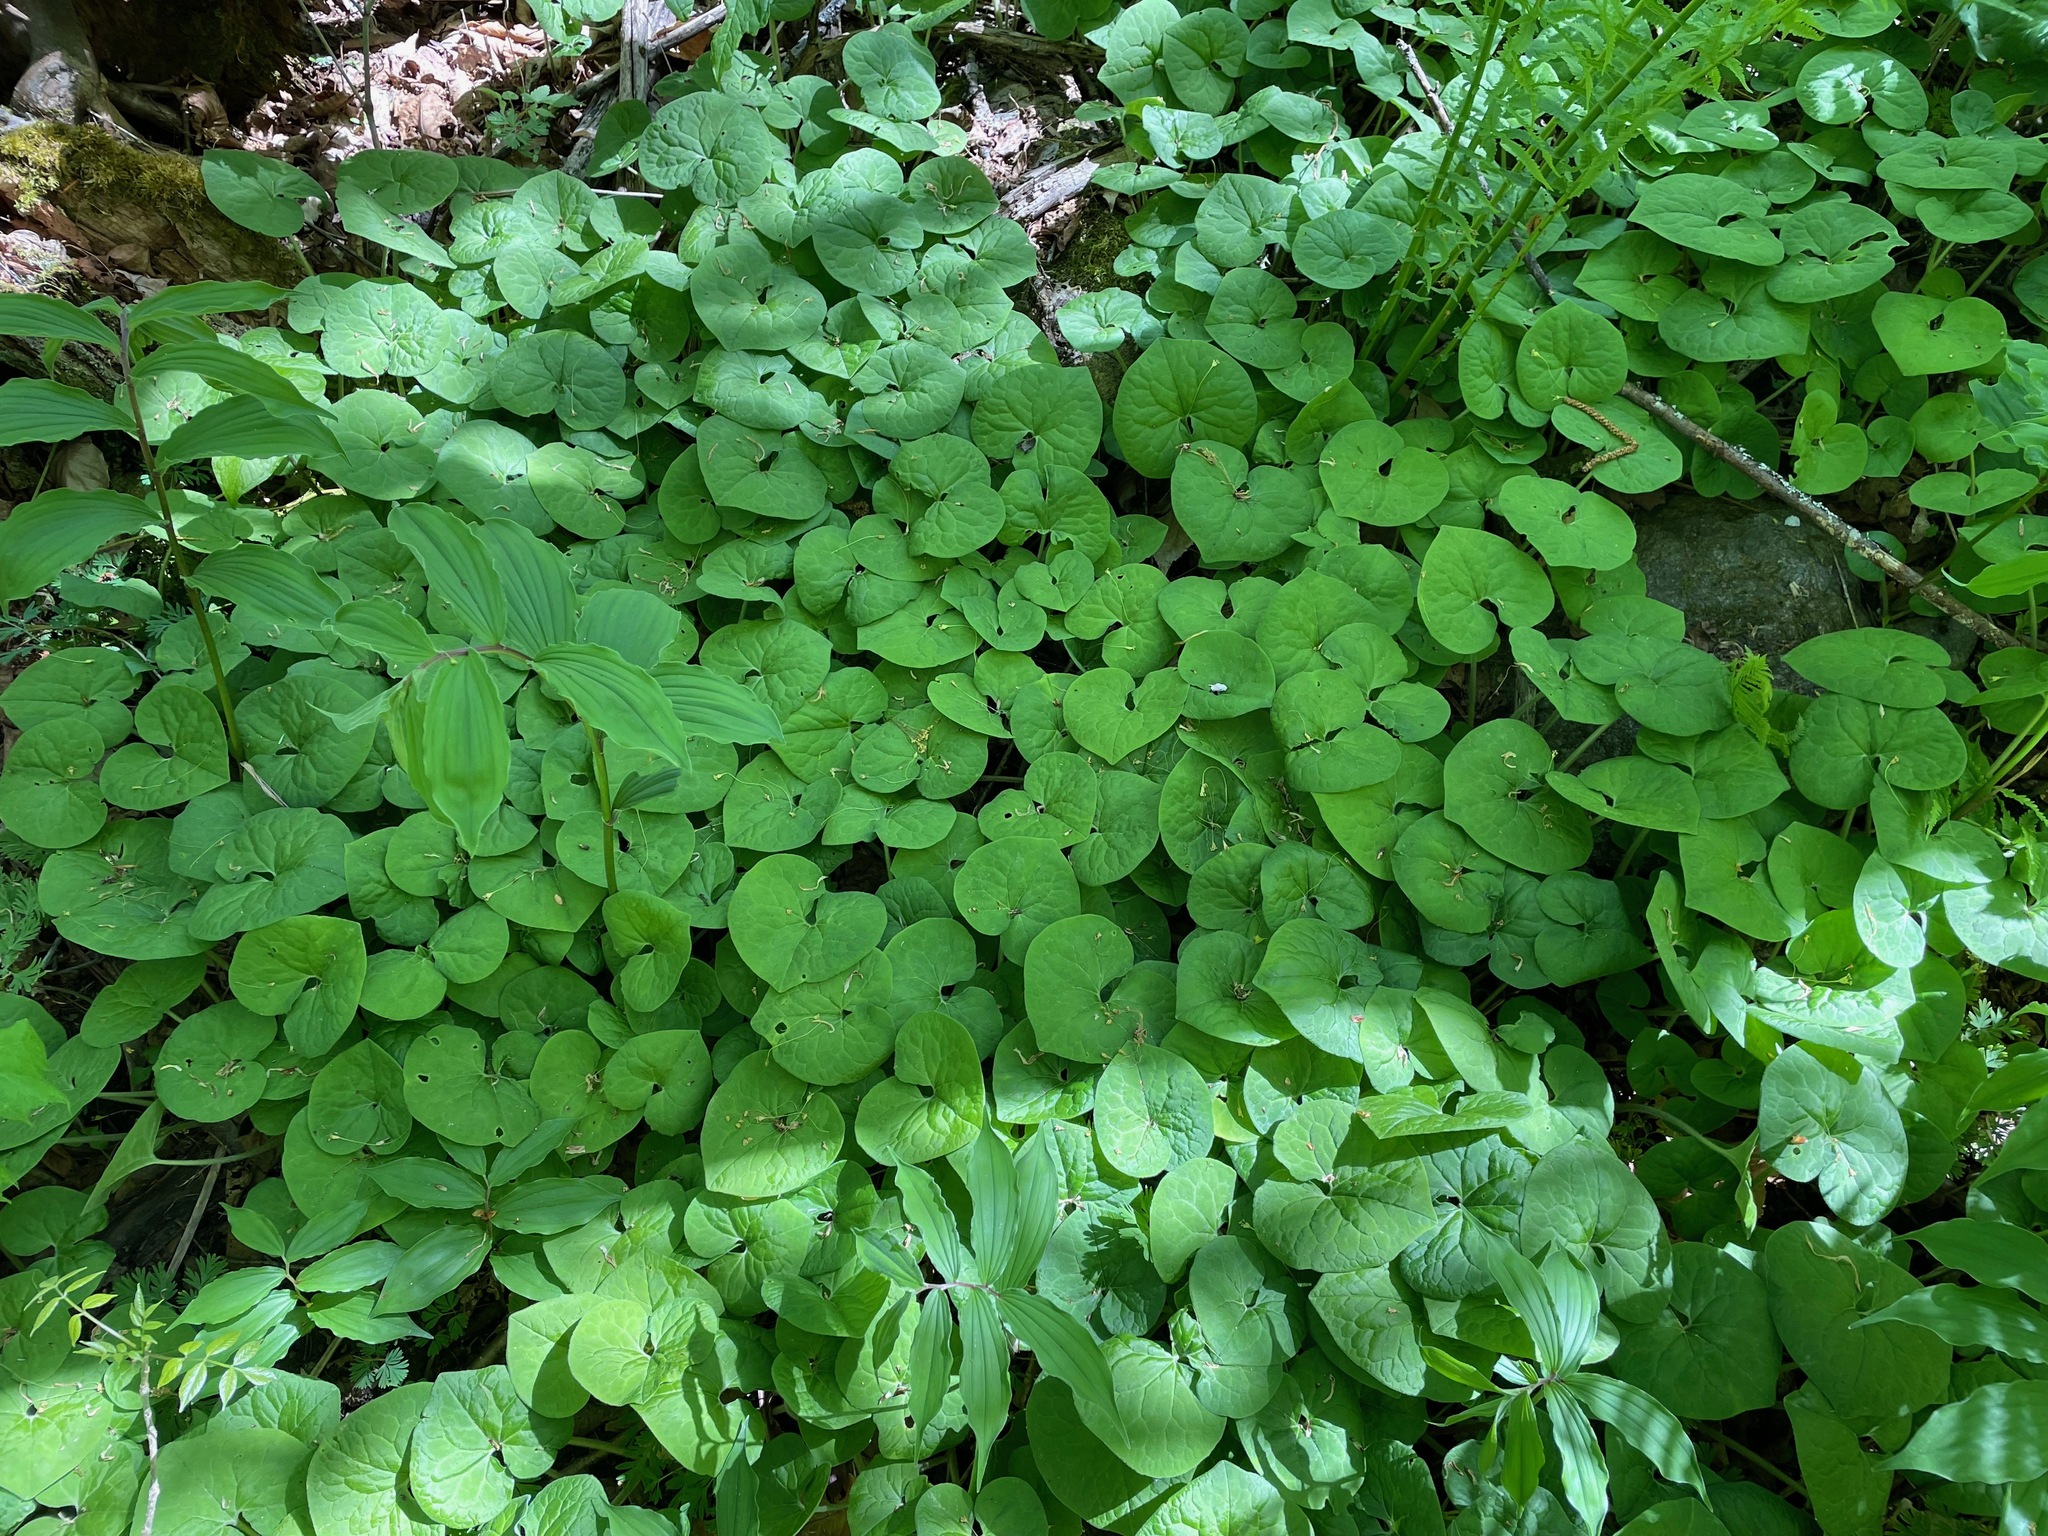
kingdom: Plantae
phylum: Tracheophyta
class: Magnoliopsida
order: Piperales
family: Aristolochiaceae
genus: Asarum
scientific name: Asarum canadense
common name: Wild ginger
